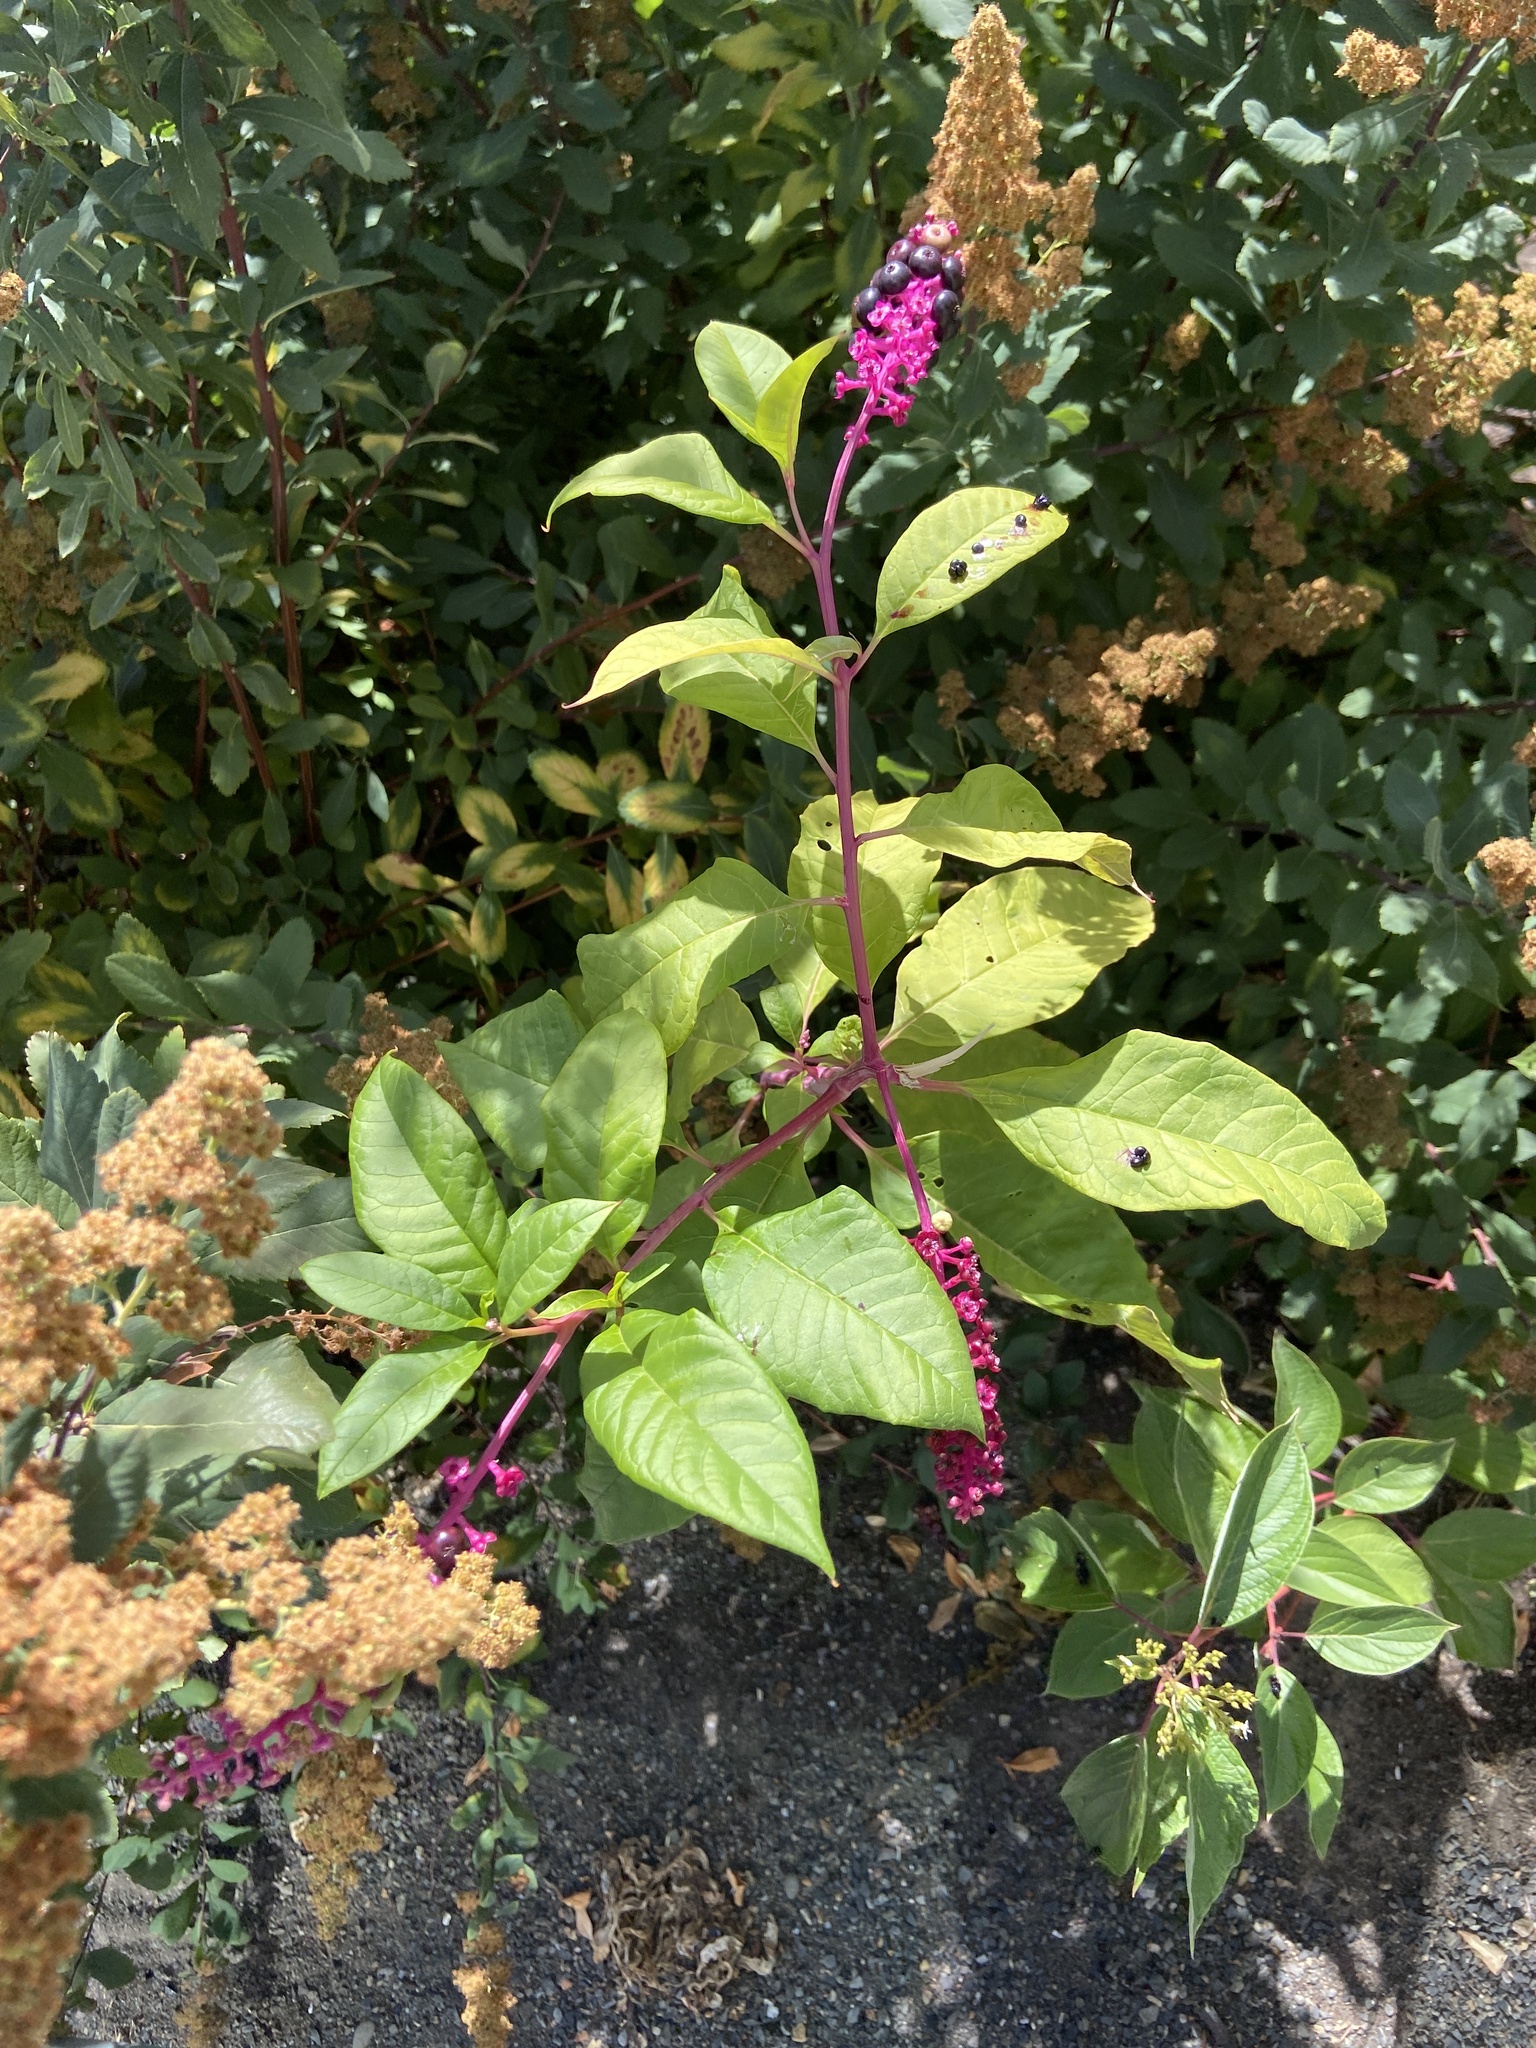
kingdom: Plantae
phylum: Tracheophyta
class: Magnoliopsida
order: Caryophyllales
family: Phytolaccaceae
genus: Phytolacca
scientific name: Phytolacca americana
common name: American pokeweed
